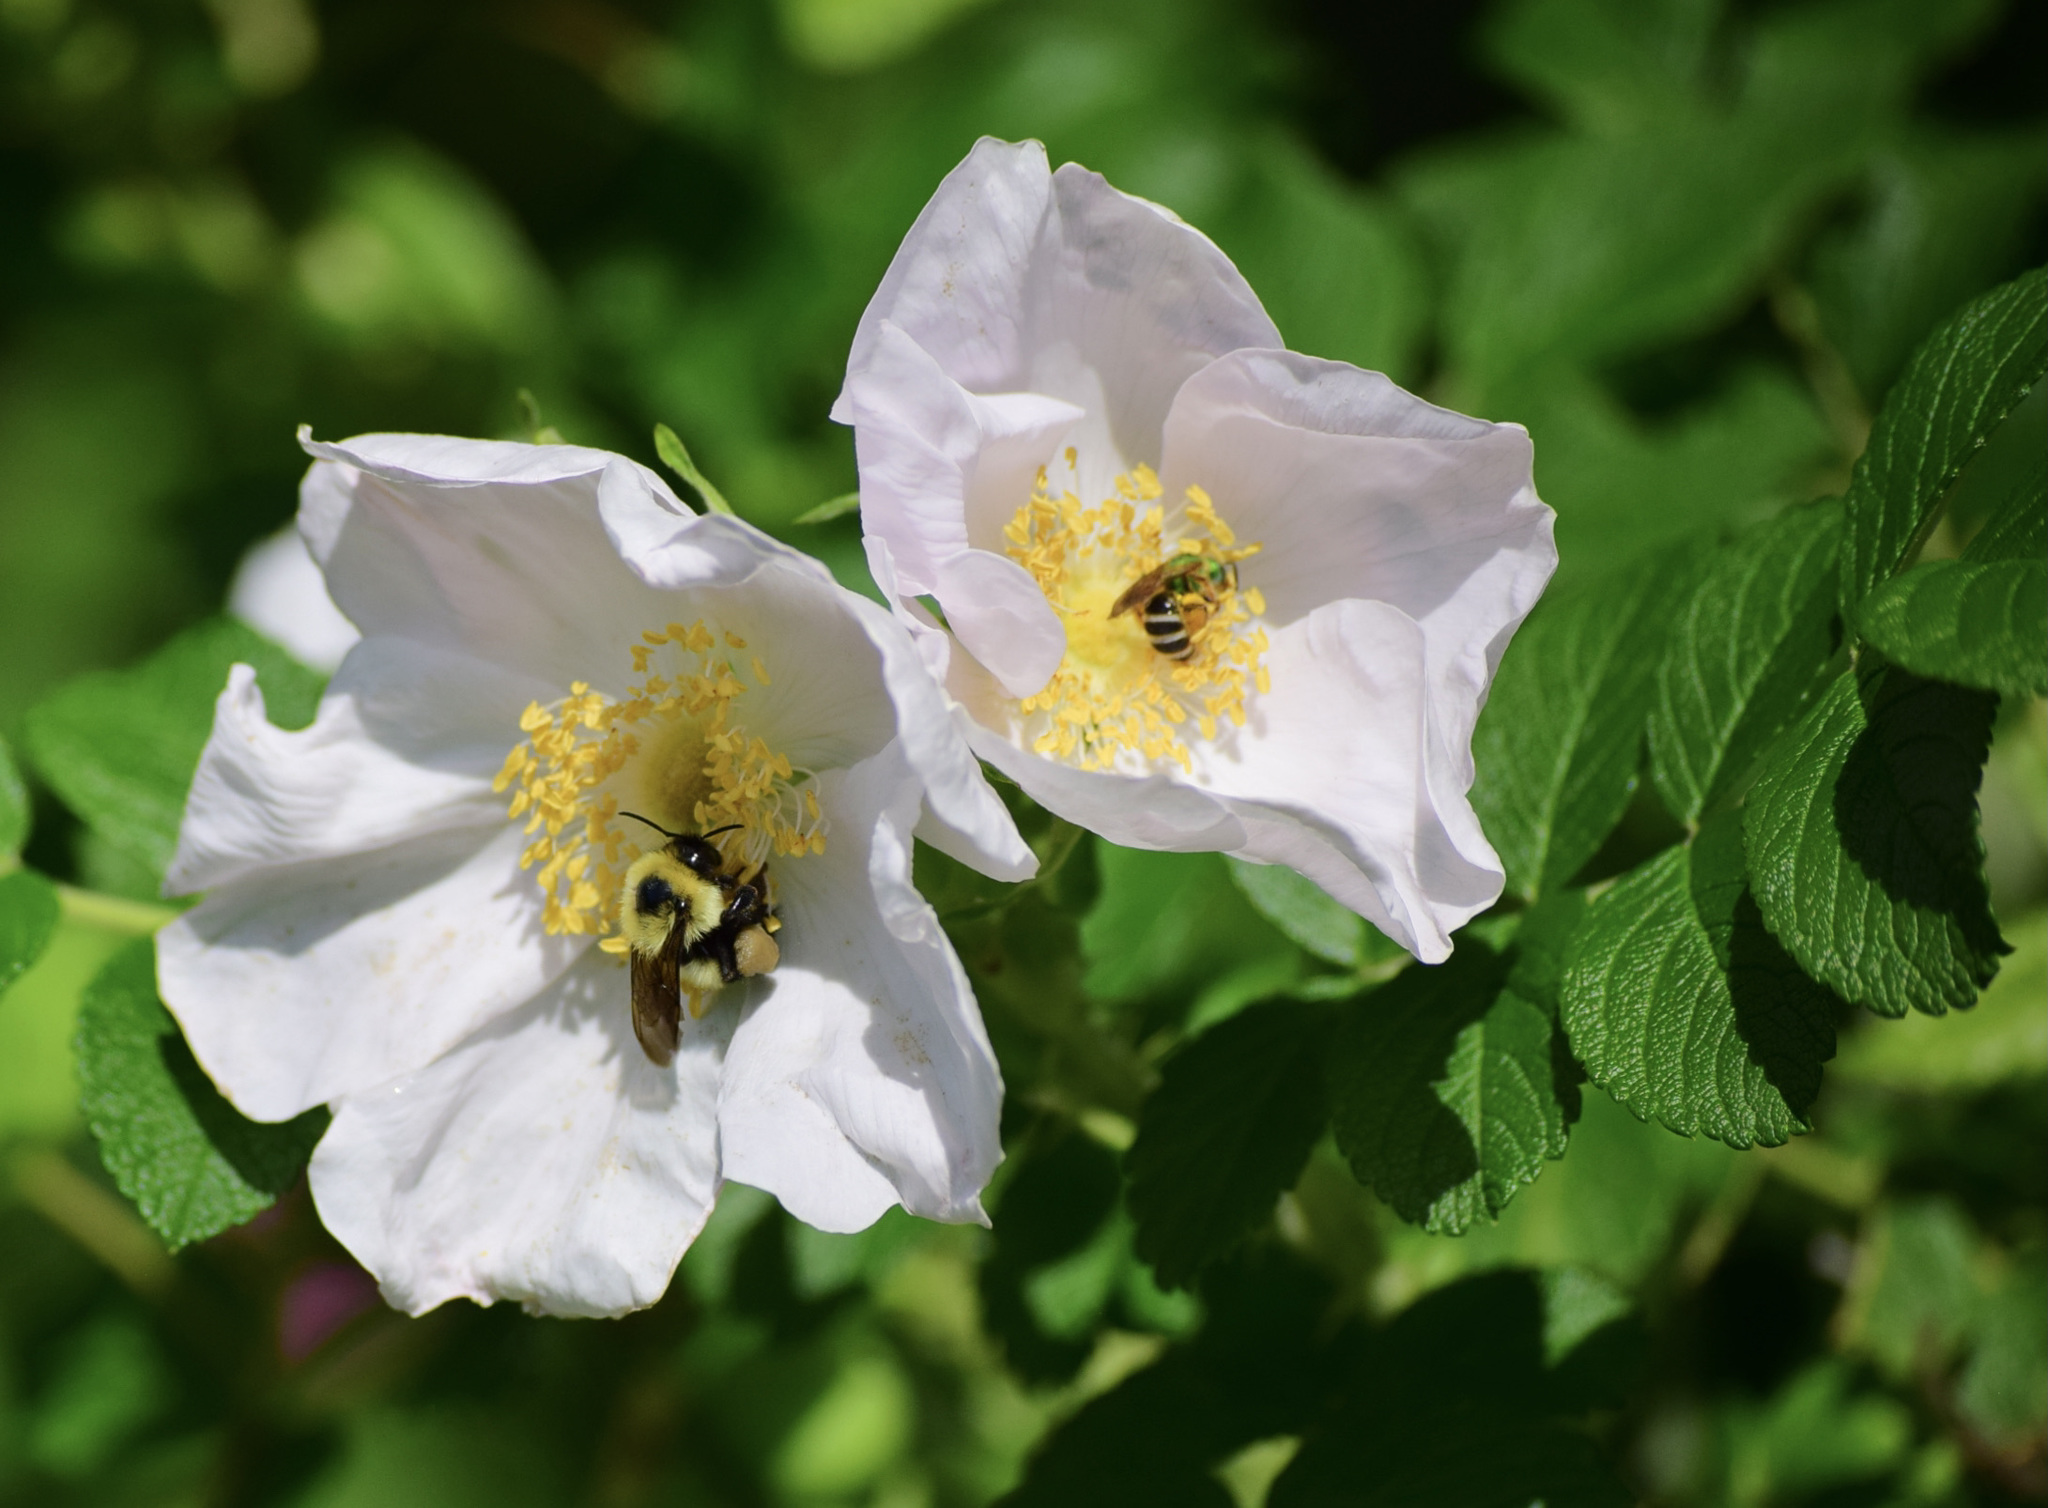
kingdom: Animalia
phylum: Arthropoda
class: Insecta
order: Hymenoptera
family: Apidae
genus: Bombus
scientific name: Bombus bimaculatus
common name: Two-spotted bumble bee
